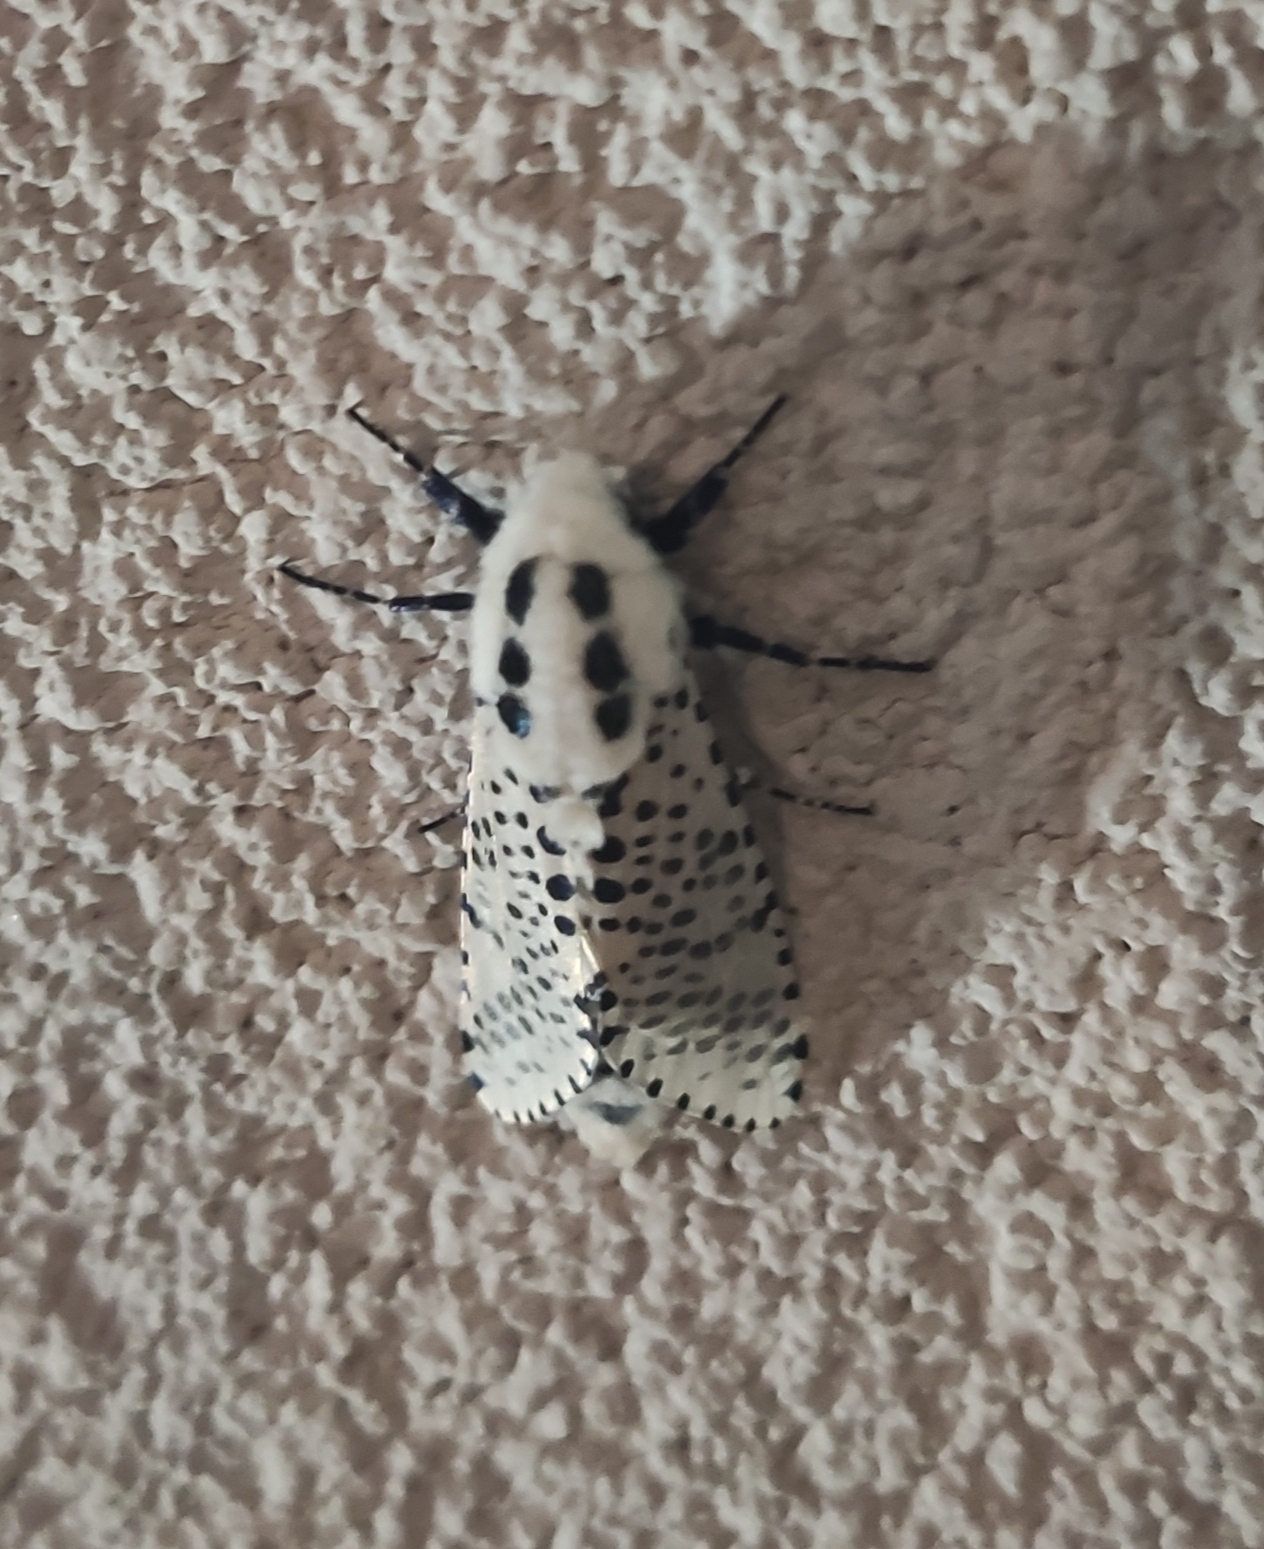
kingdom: Animalia
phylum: Arthropoda
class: Insecta
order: Lepidoptera
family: Cossidae
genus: Zeuzera
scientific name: Zeuzera pyrina
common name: Leopard moth
